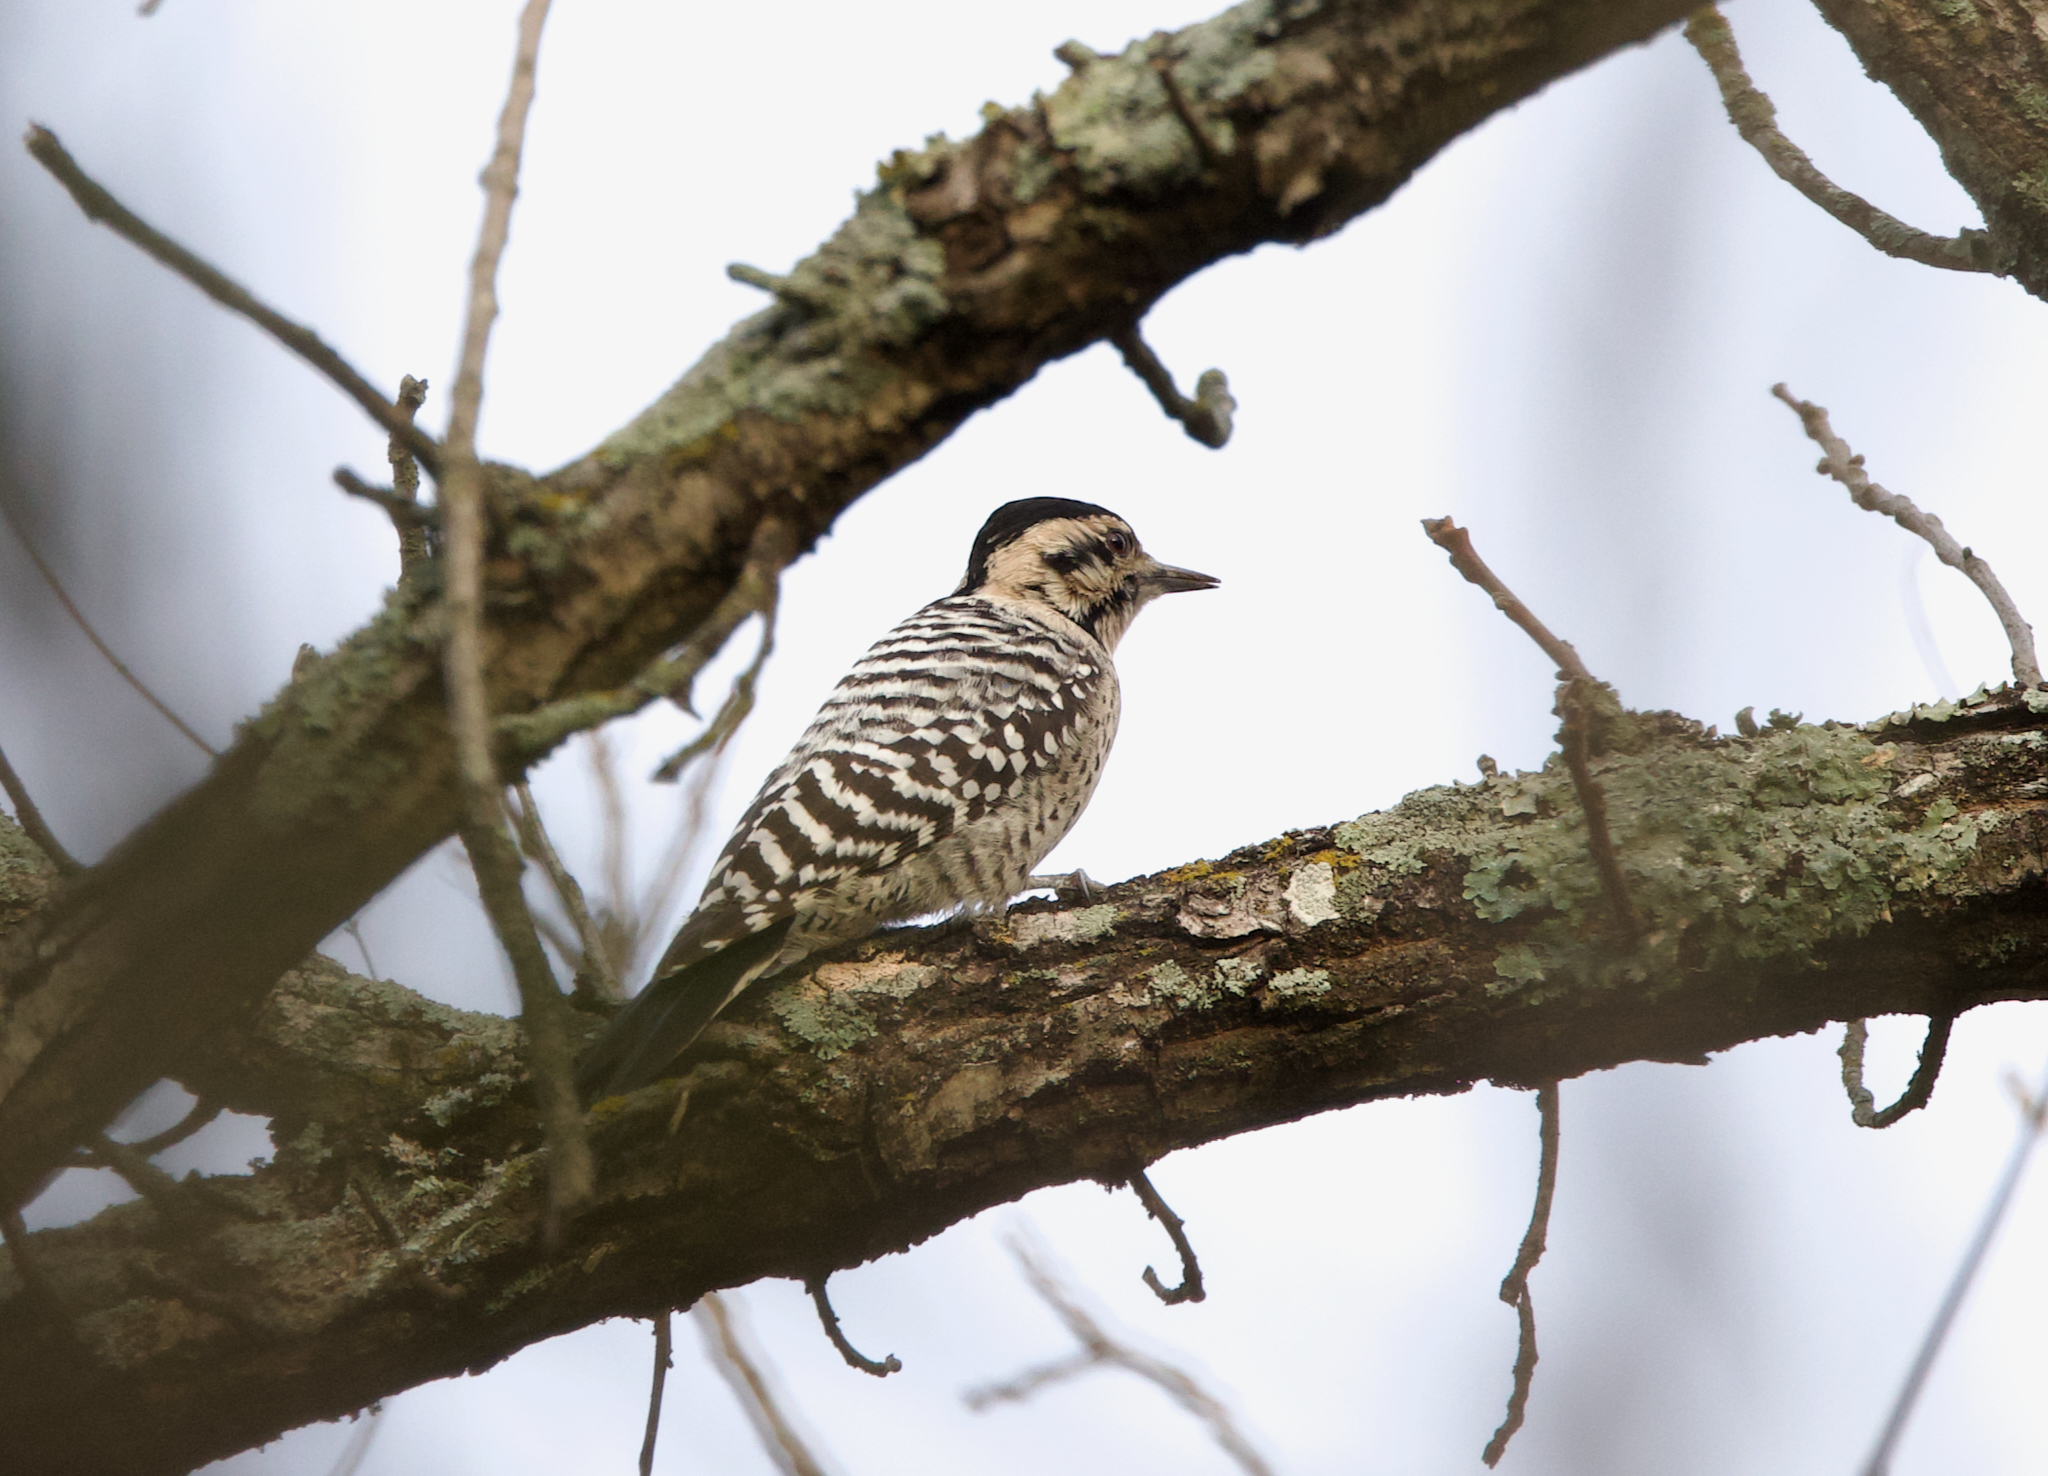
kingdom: Animalia
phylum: Chordata
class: Aves
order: Piciformes
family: Picidae
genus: Dryobates
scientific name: Dryobates scalaris
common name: Ladder-backed woodpecker
